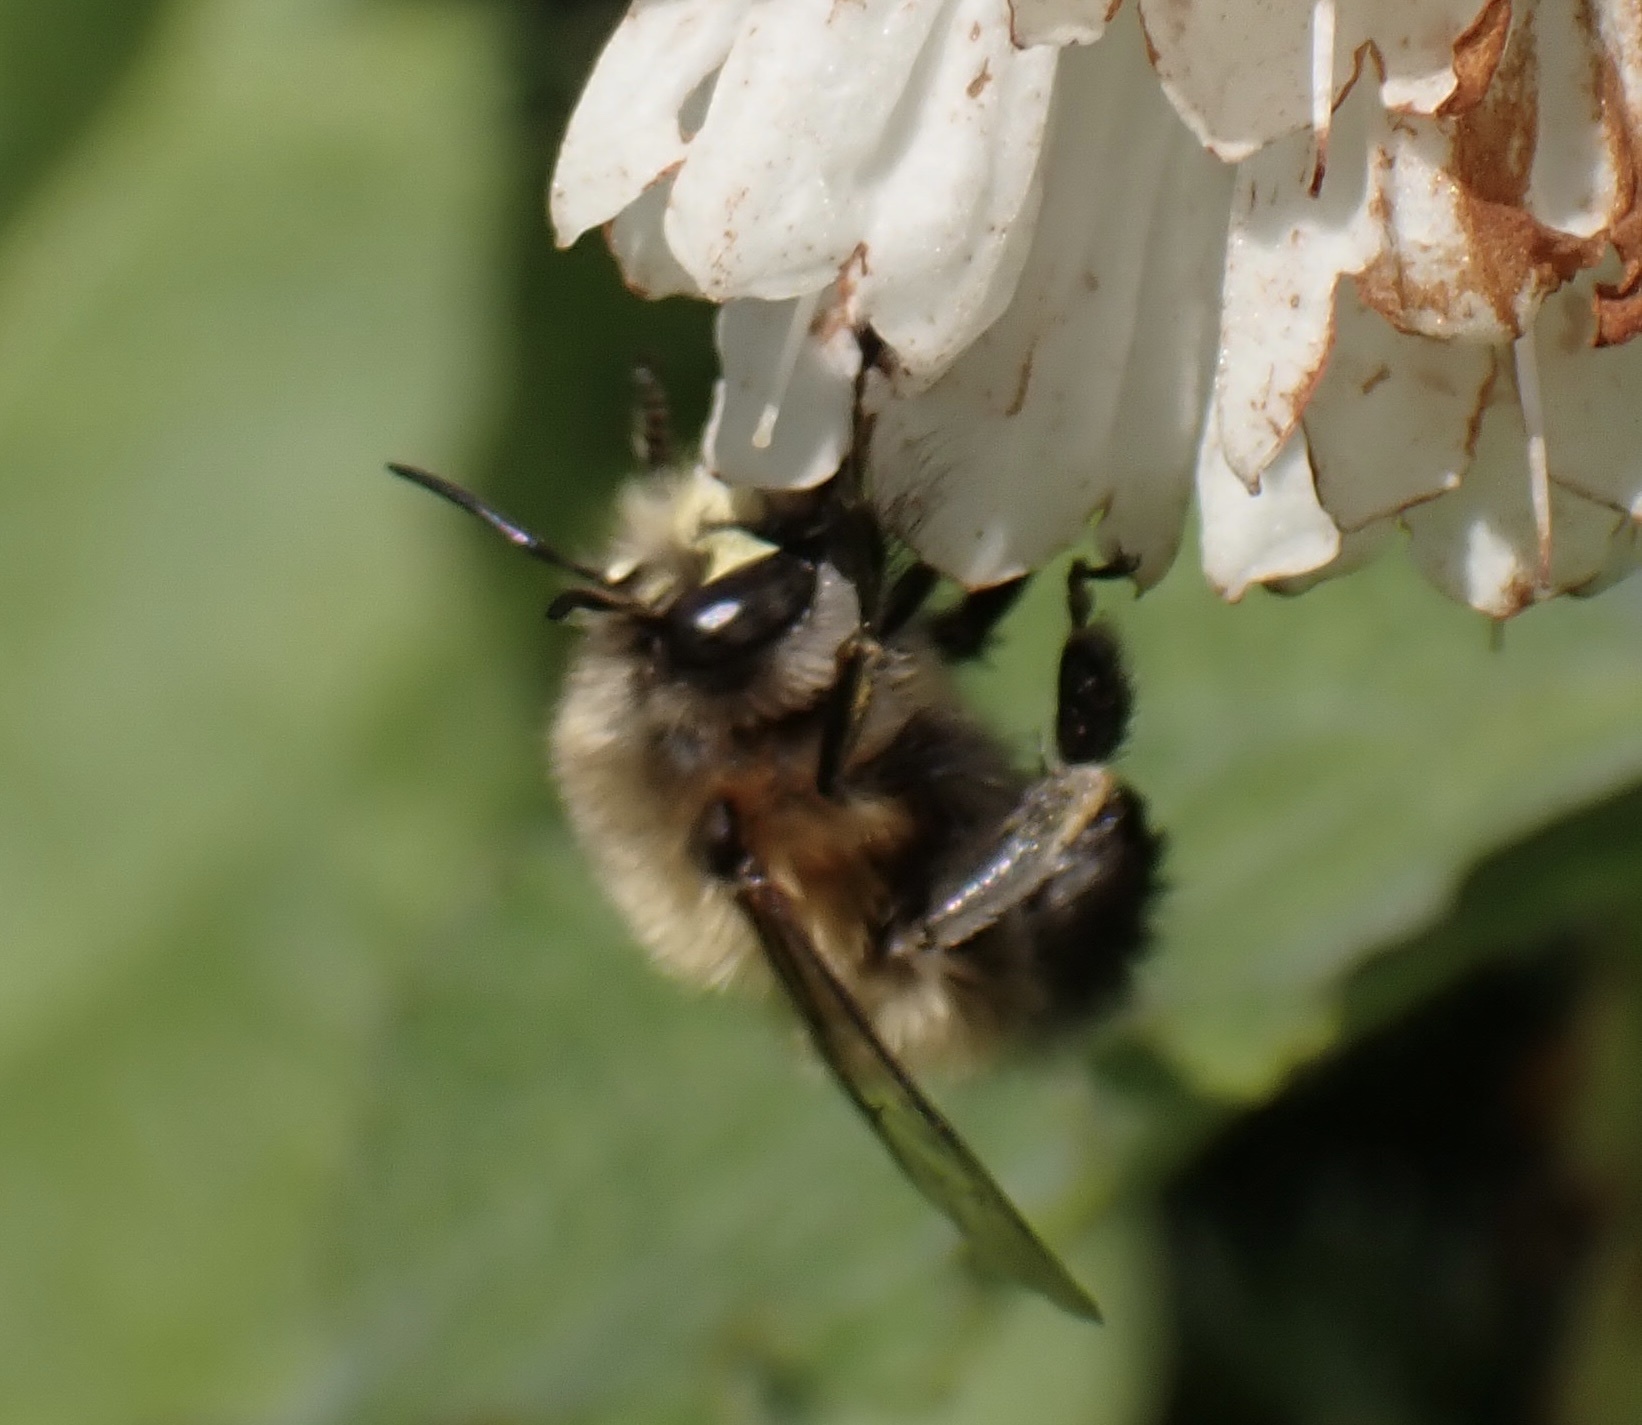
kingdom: Animalia
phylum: Arthropoda
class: Insecta
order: Hymenoptera
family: Apidae
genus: Anthophora
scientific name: Anthophora plumipes
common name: Hairy-footed flower bee
